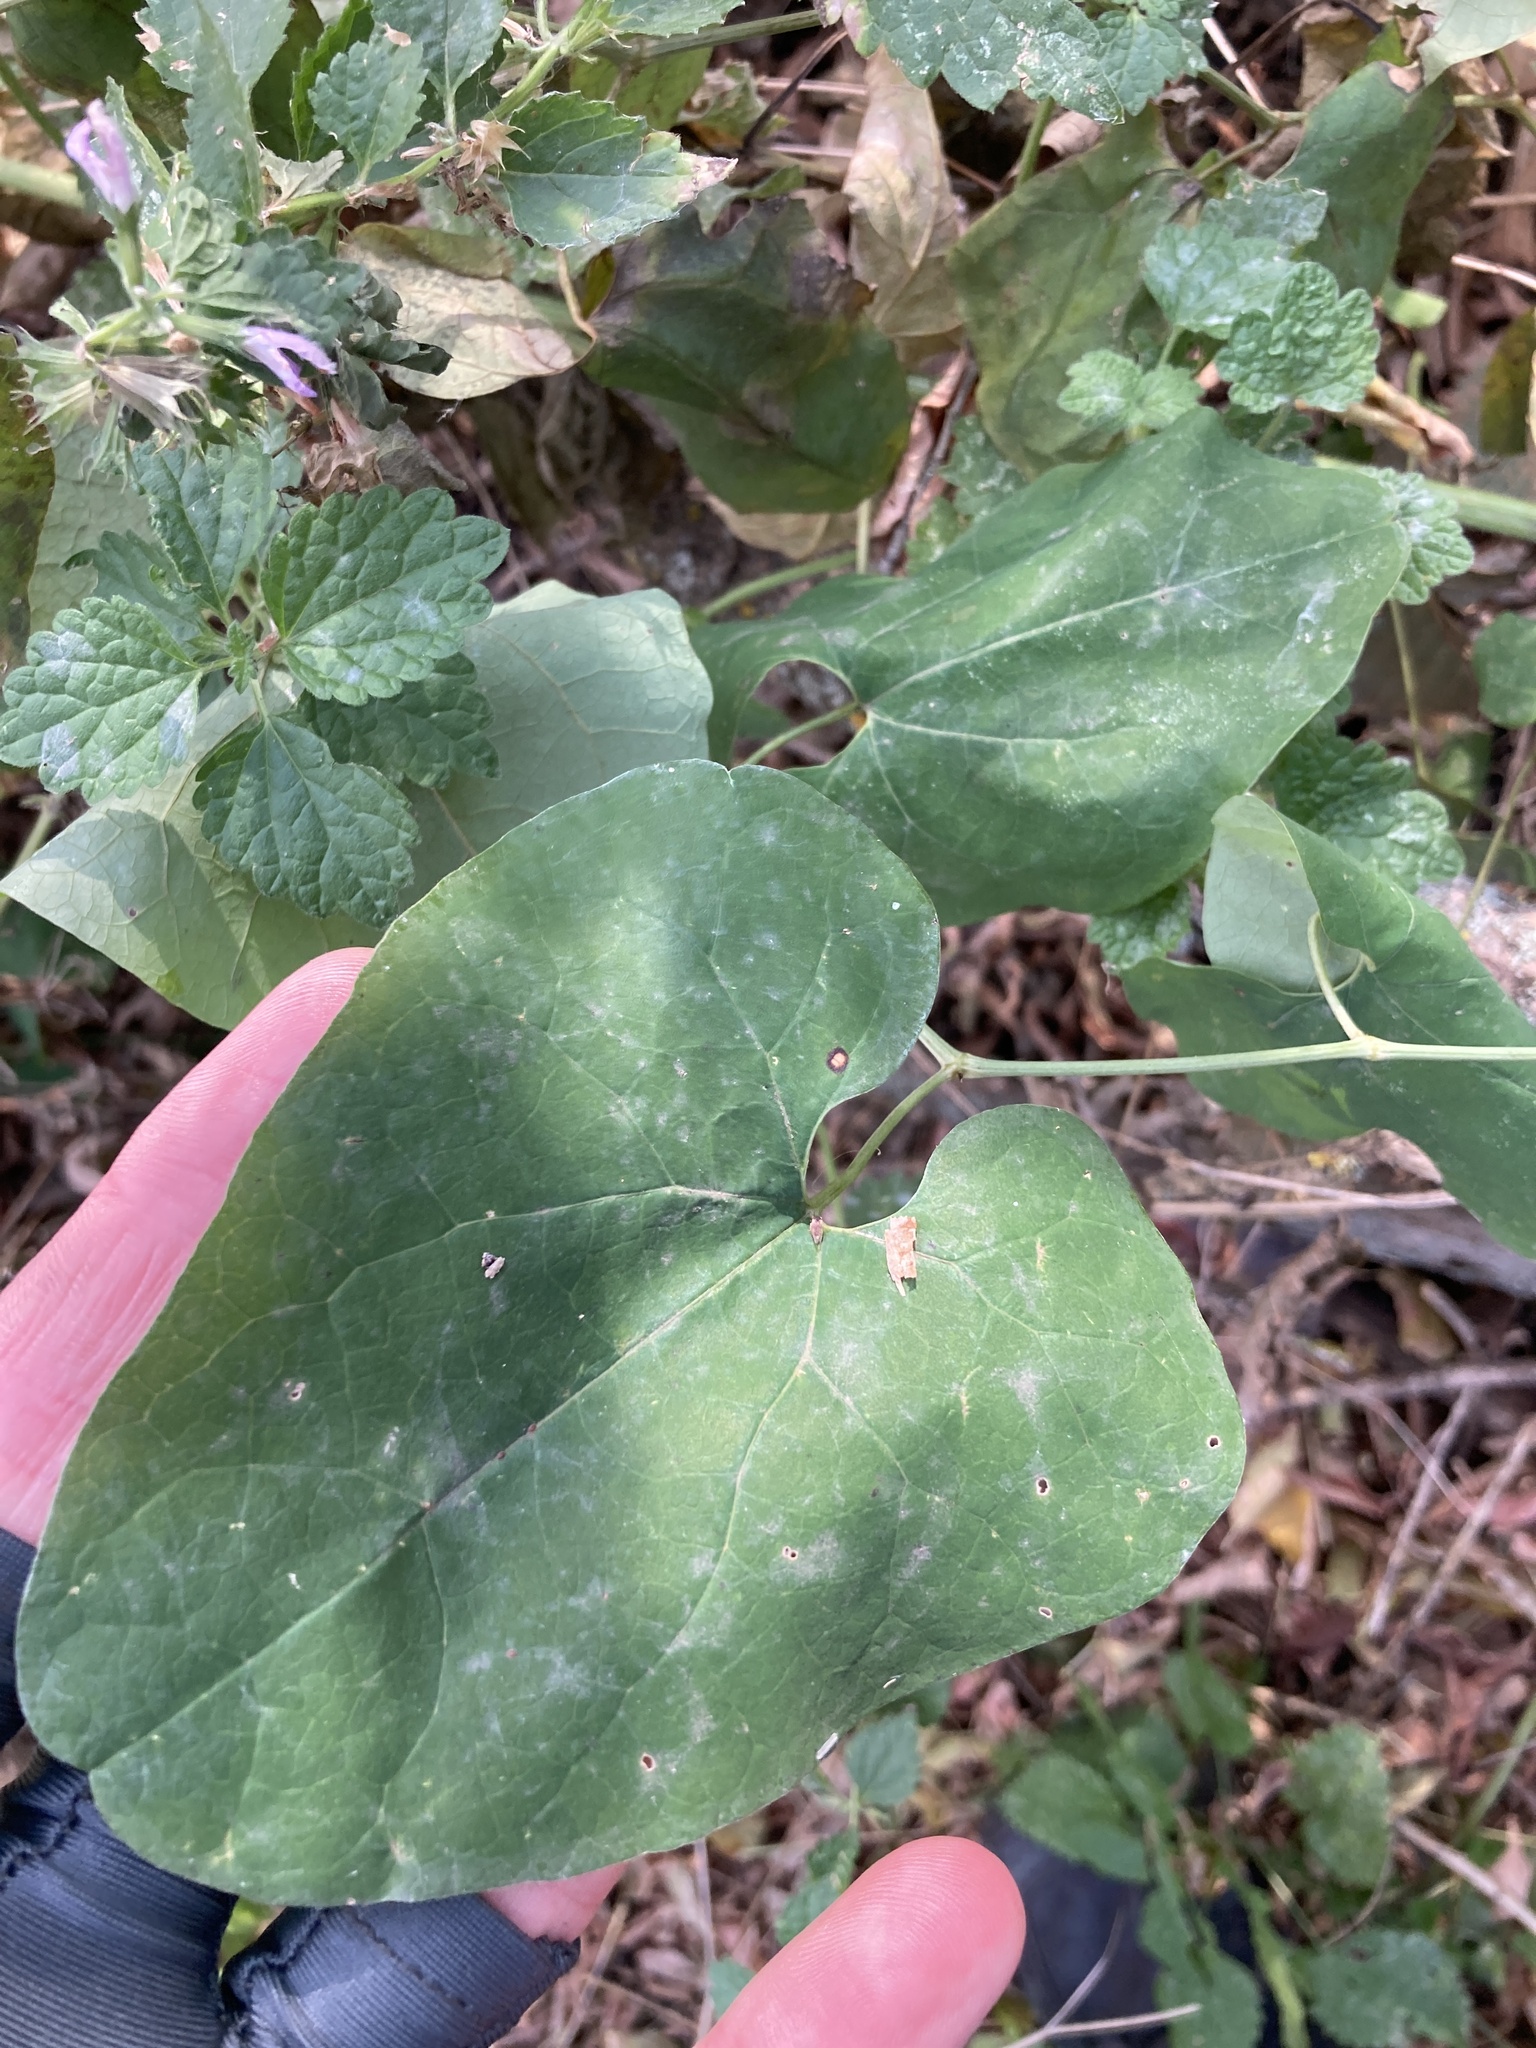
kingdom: Plantae
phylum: Tracheophyta
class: Magnoliopsida
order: Piperales
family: Aristolochiaceae
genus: Aristolochia
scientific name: Aristolochia clematitis
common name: Birthwort
